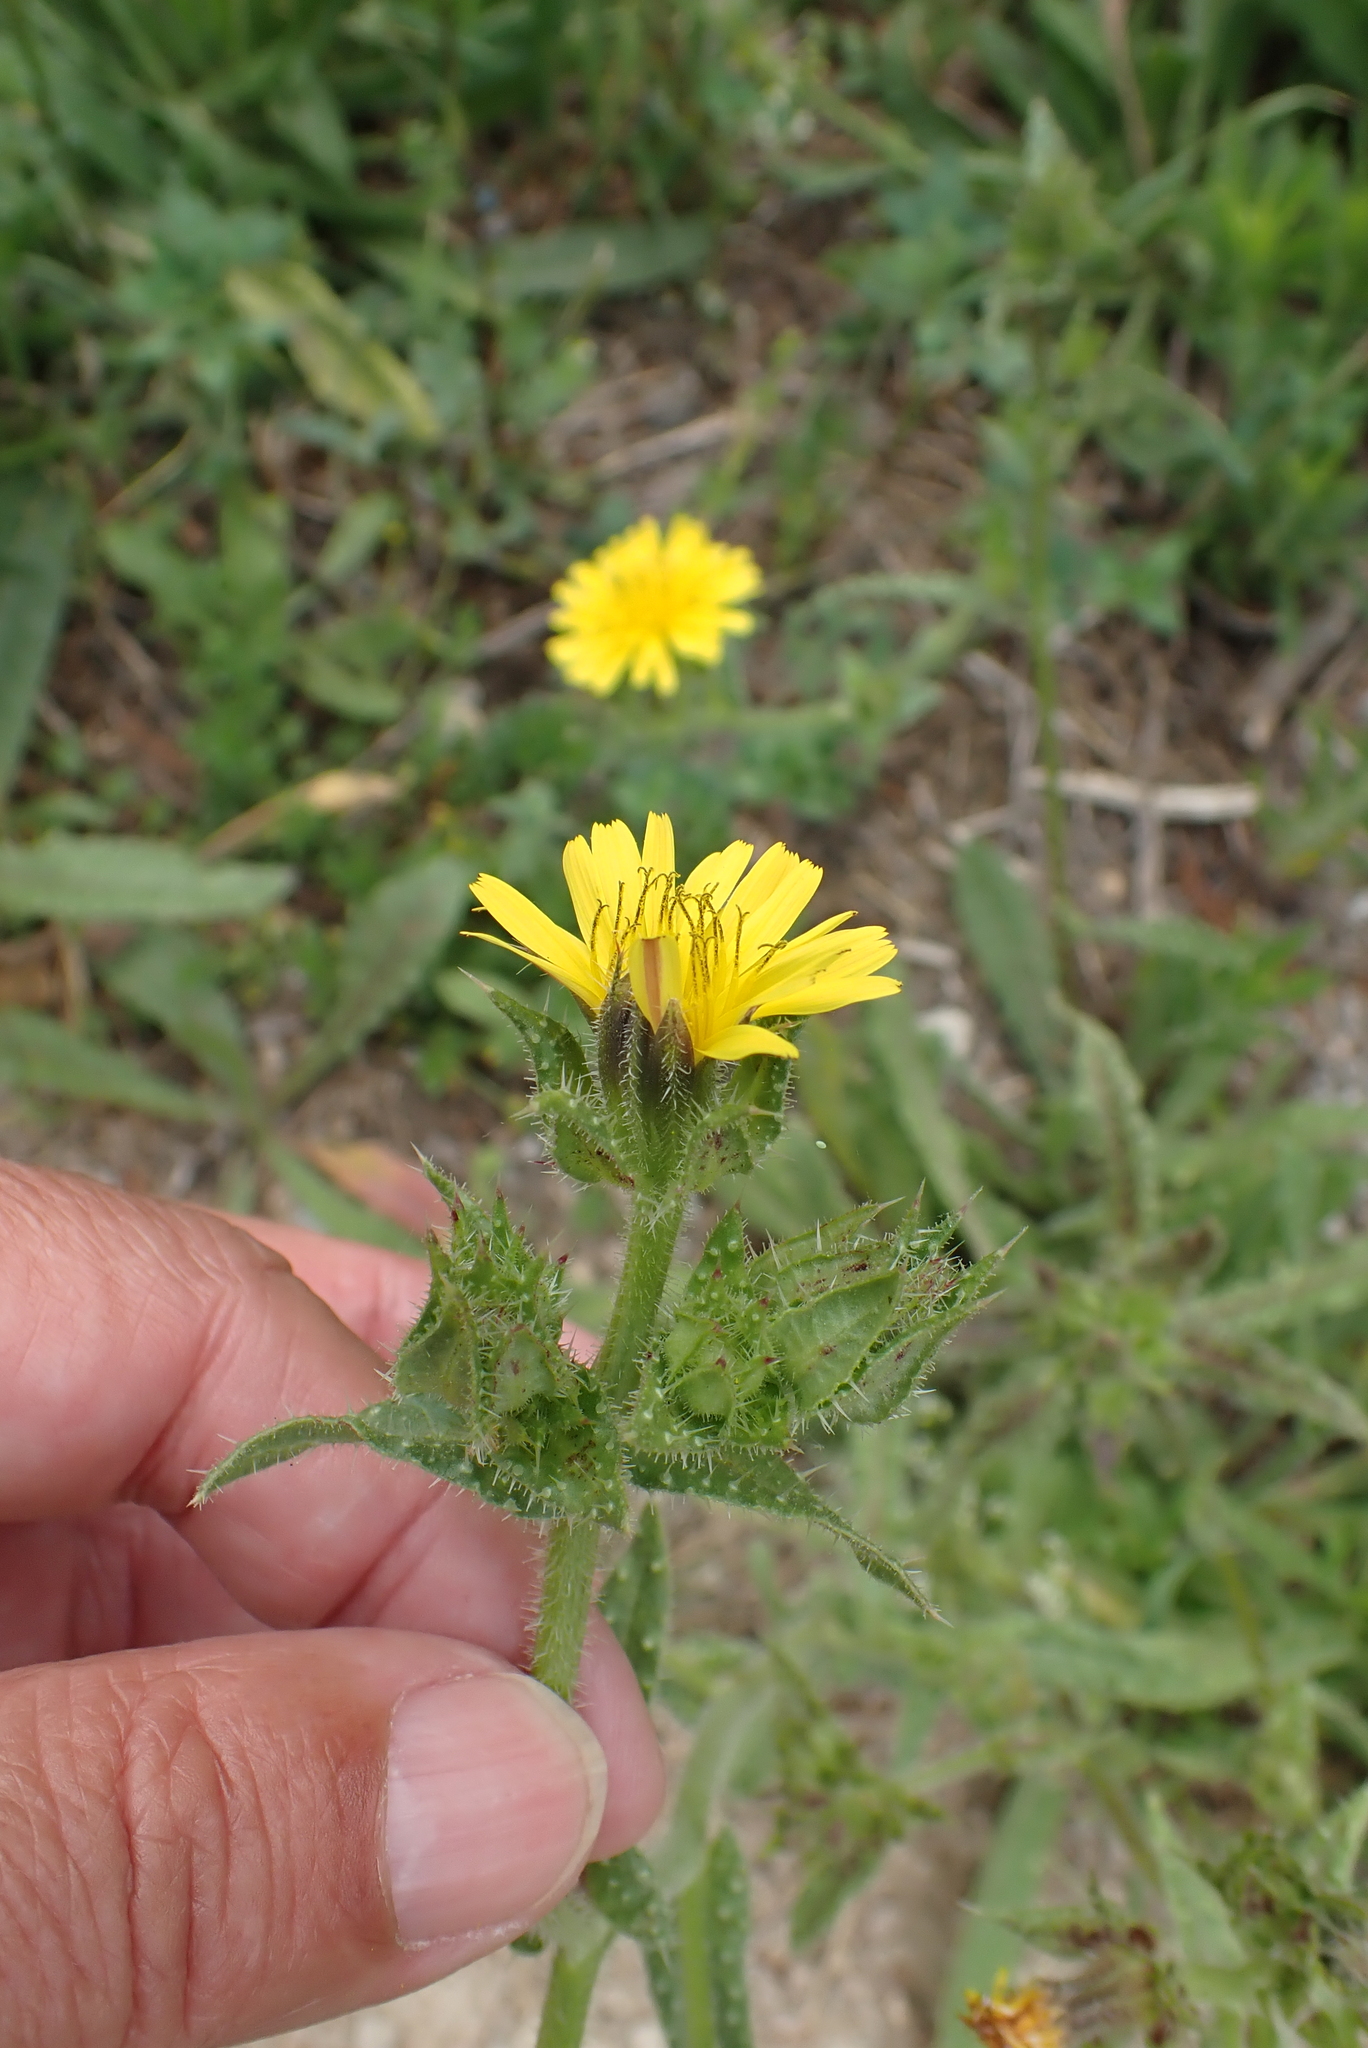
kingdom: Plantae
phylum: Tracheophyta
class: Magnoliopsida
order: Asterales
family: Asteraceae
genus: Helminthotheca
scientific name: Helminthotheca echioides
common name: Ox-tongue
